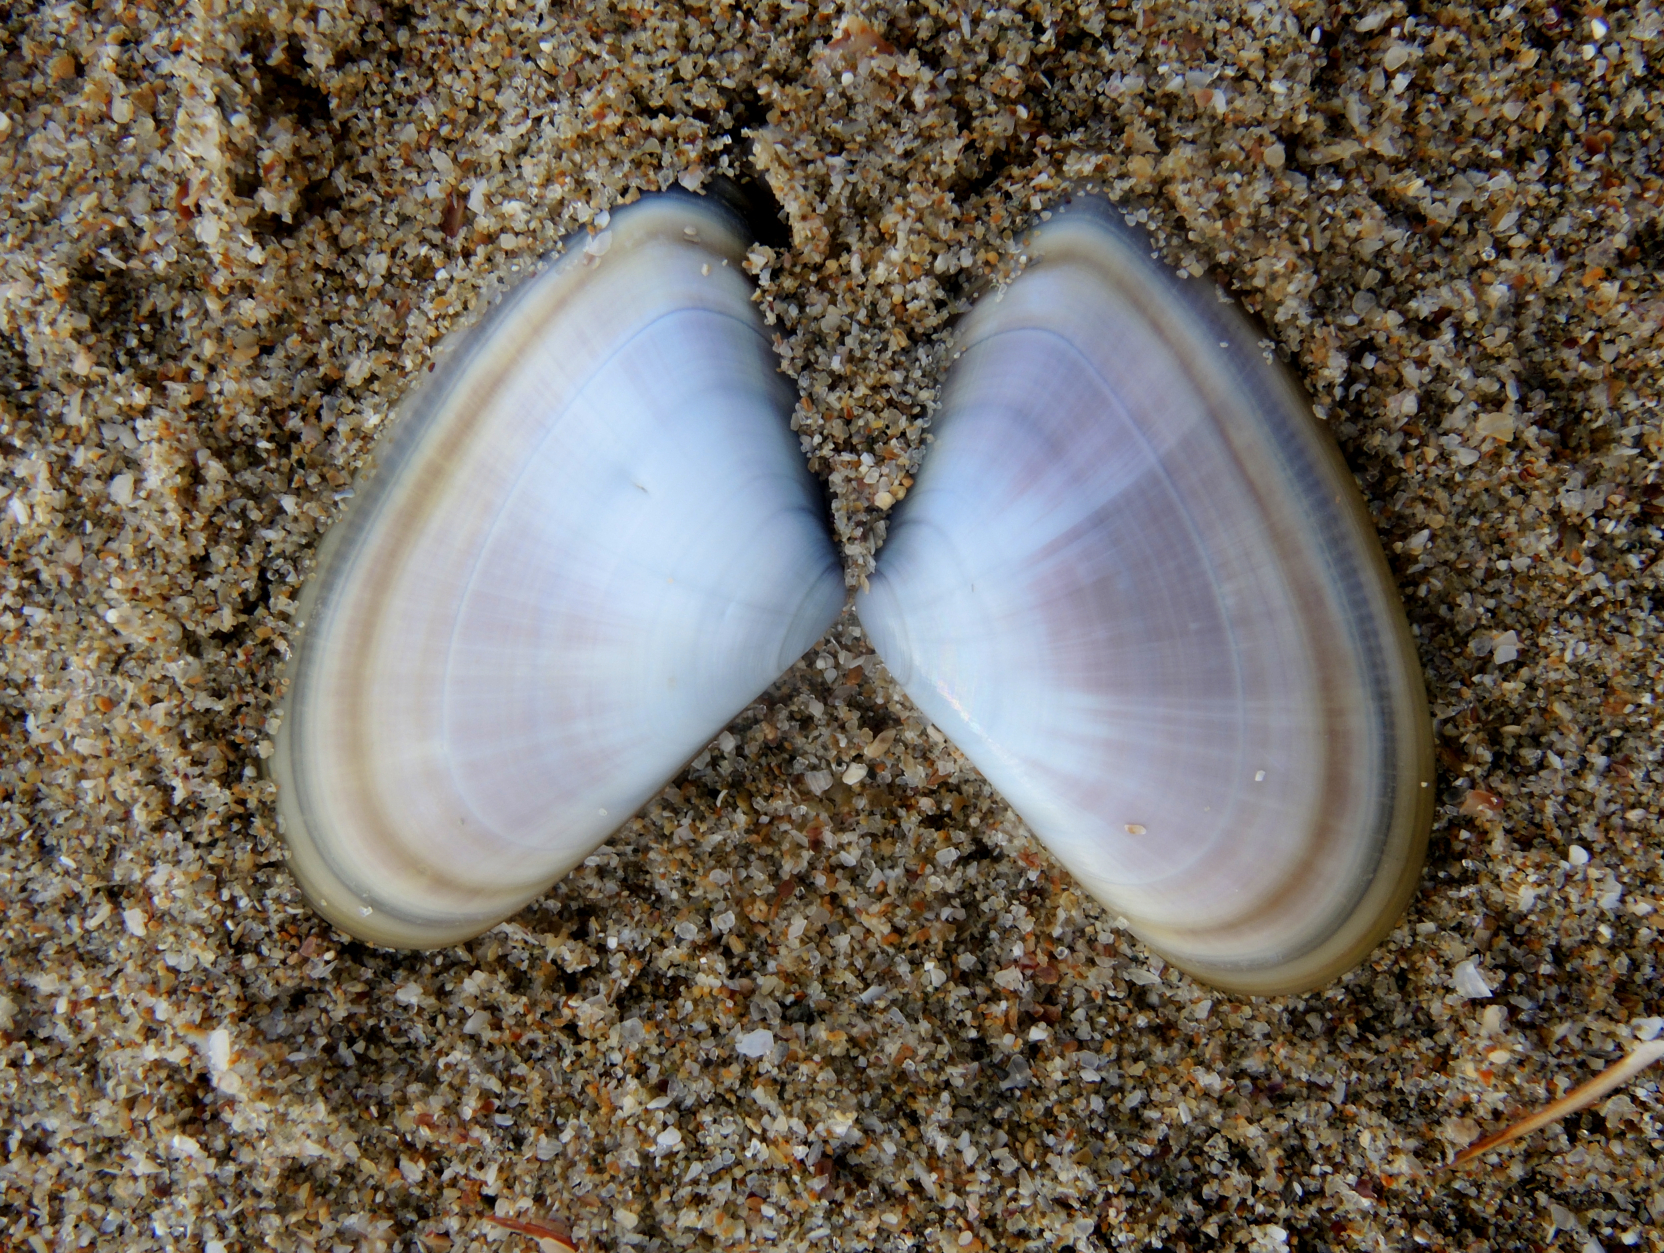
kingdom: Animalia
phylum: Mollusca
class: Bivalvia
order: Cardiida
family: Donacidae
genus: Donax
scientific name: Donax trunculus
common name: Truncate donax
